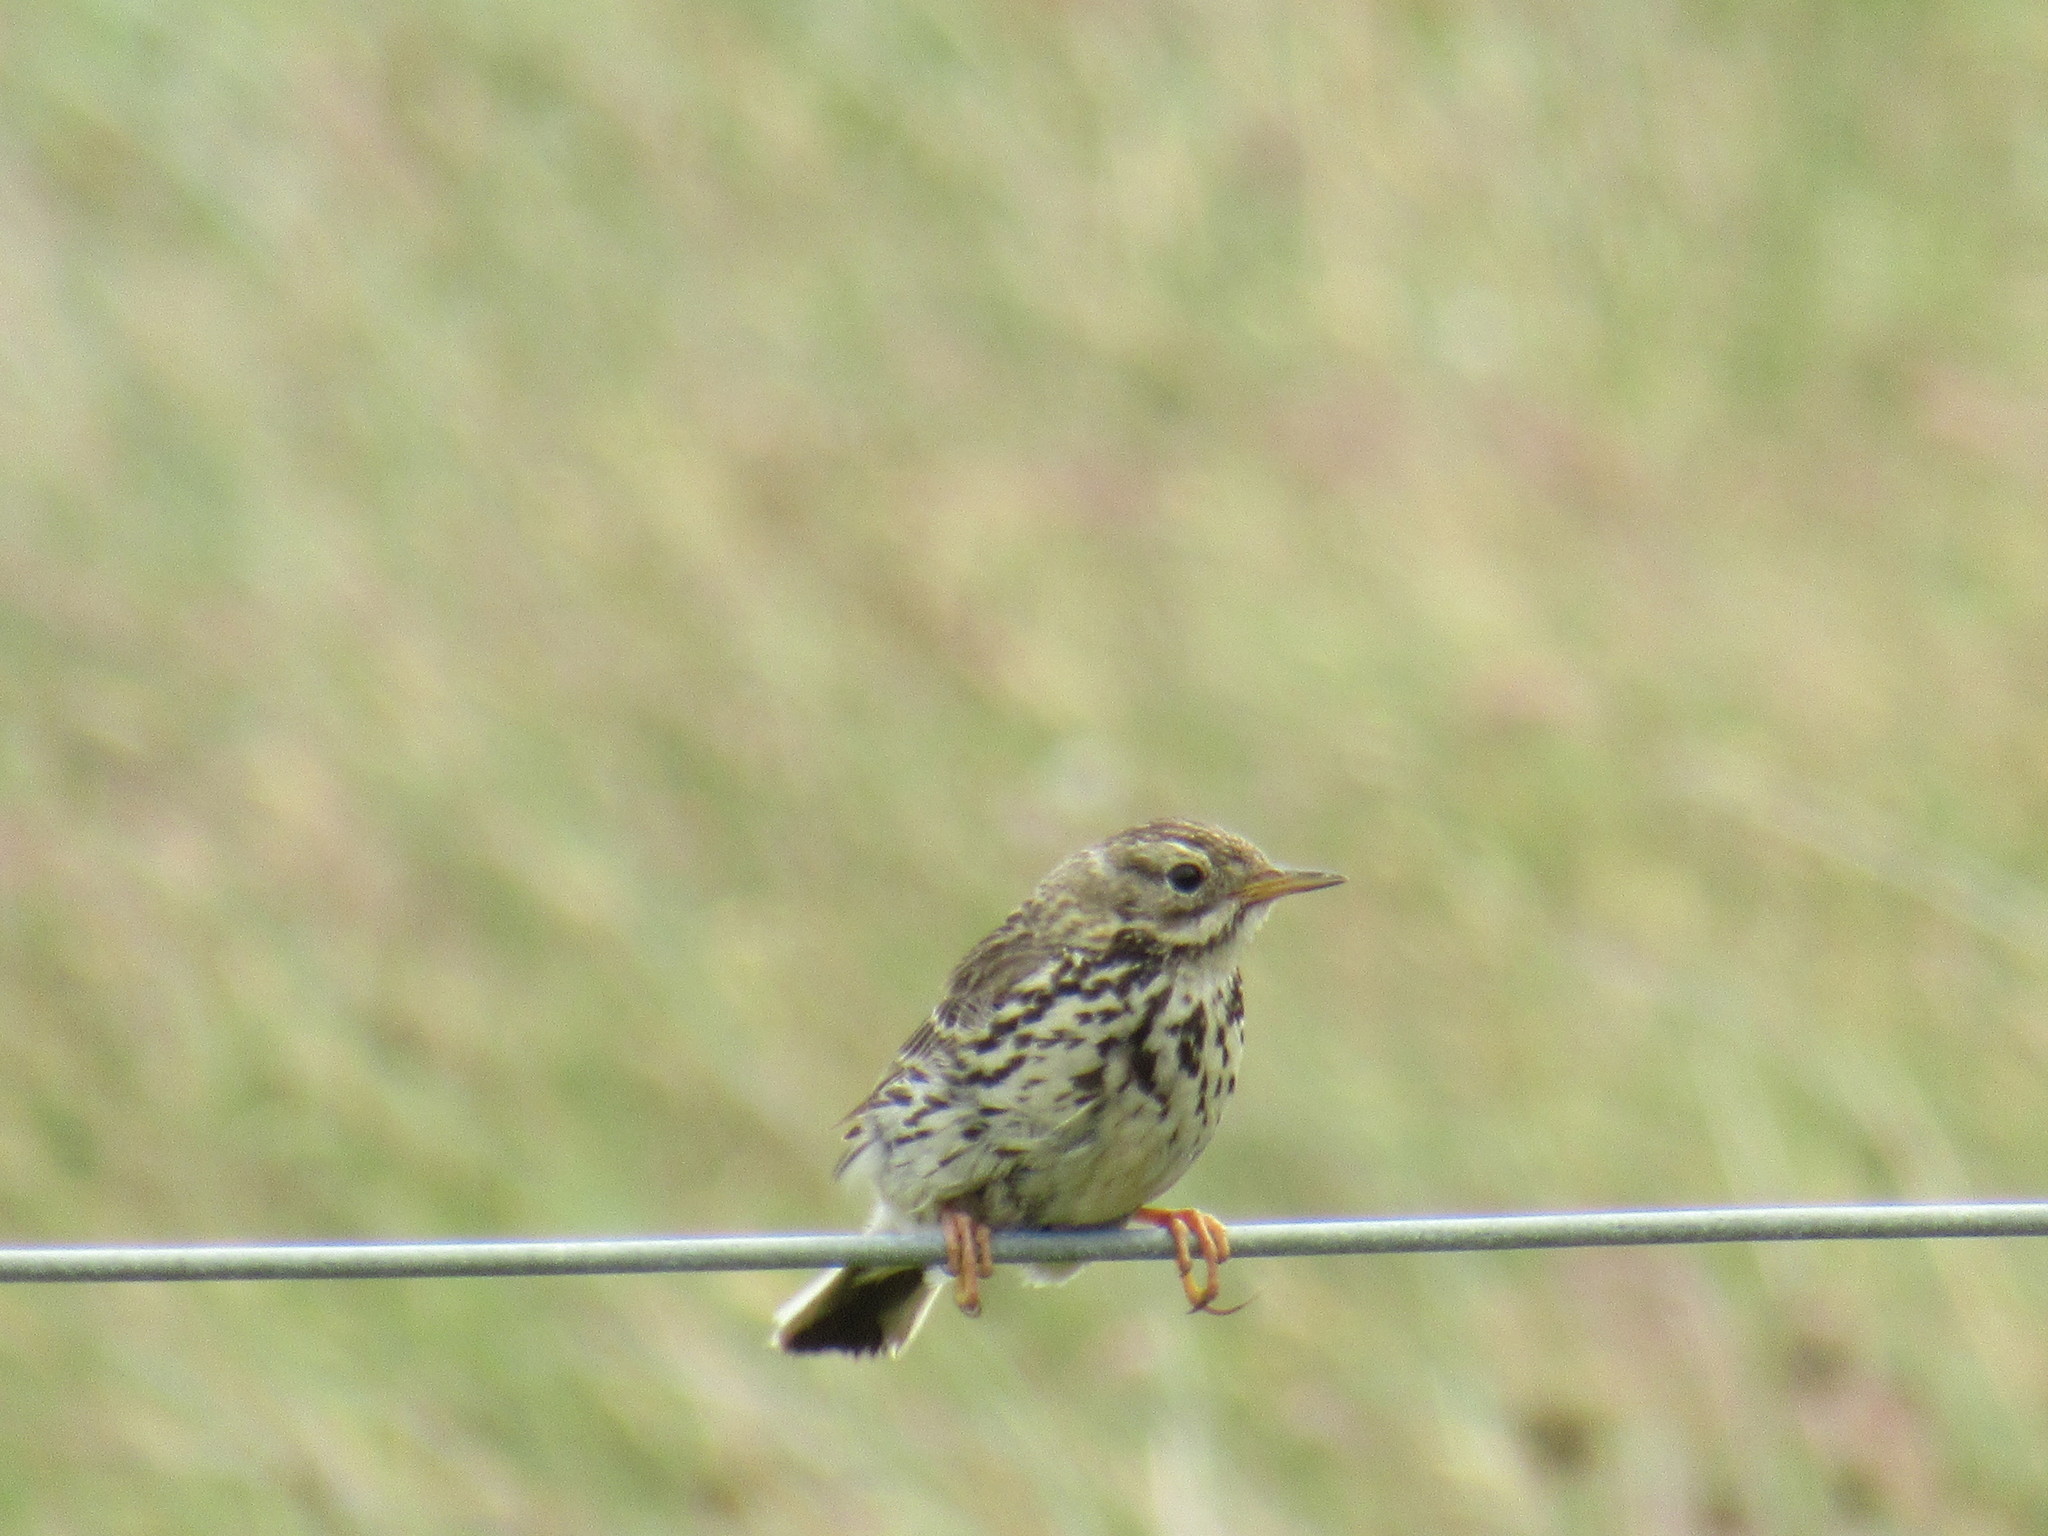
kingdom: Animalia
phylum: Chordata
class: Aves
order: Passeriformes
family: Motacillidae
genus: Anthus
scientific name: Anthus pratensis
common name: Meadow pipit
